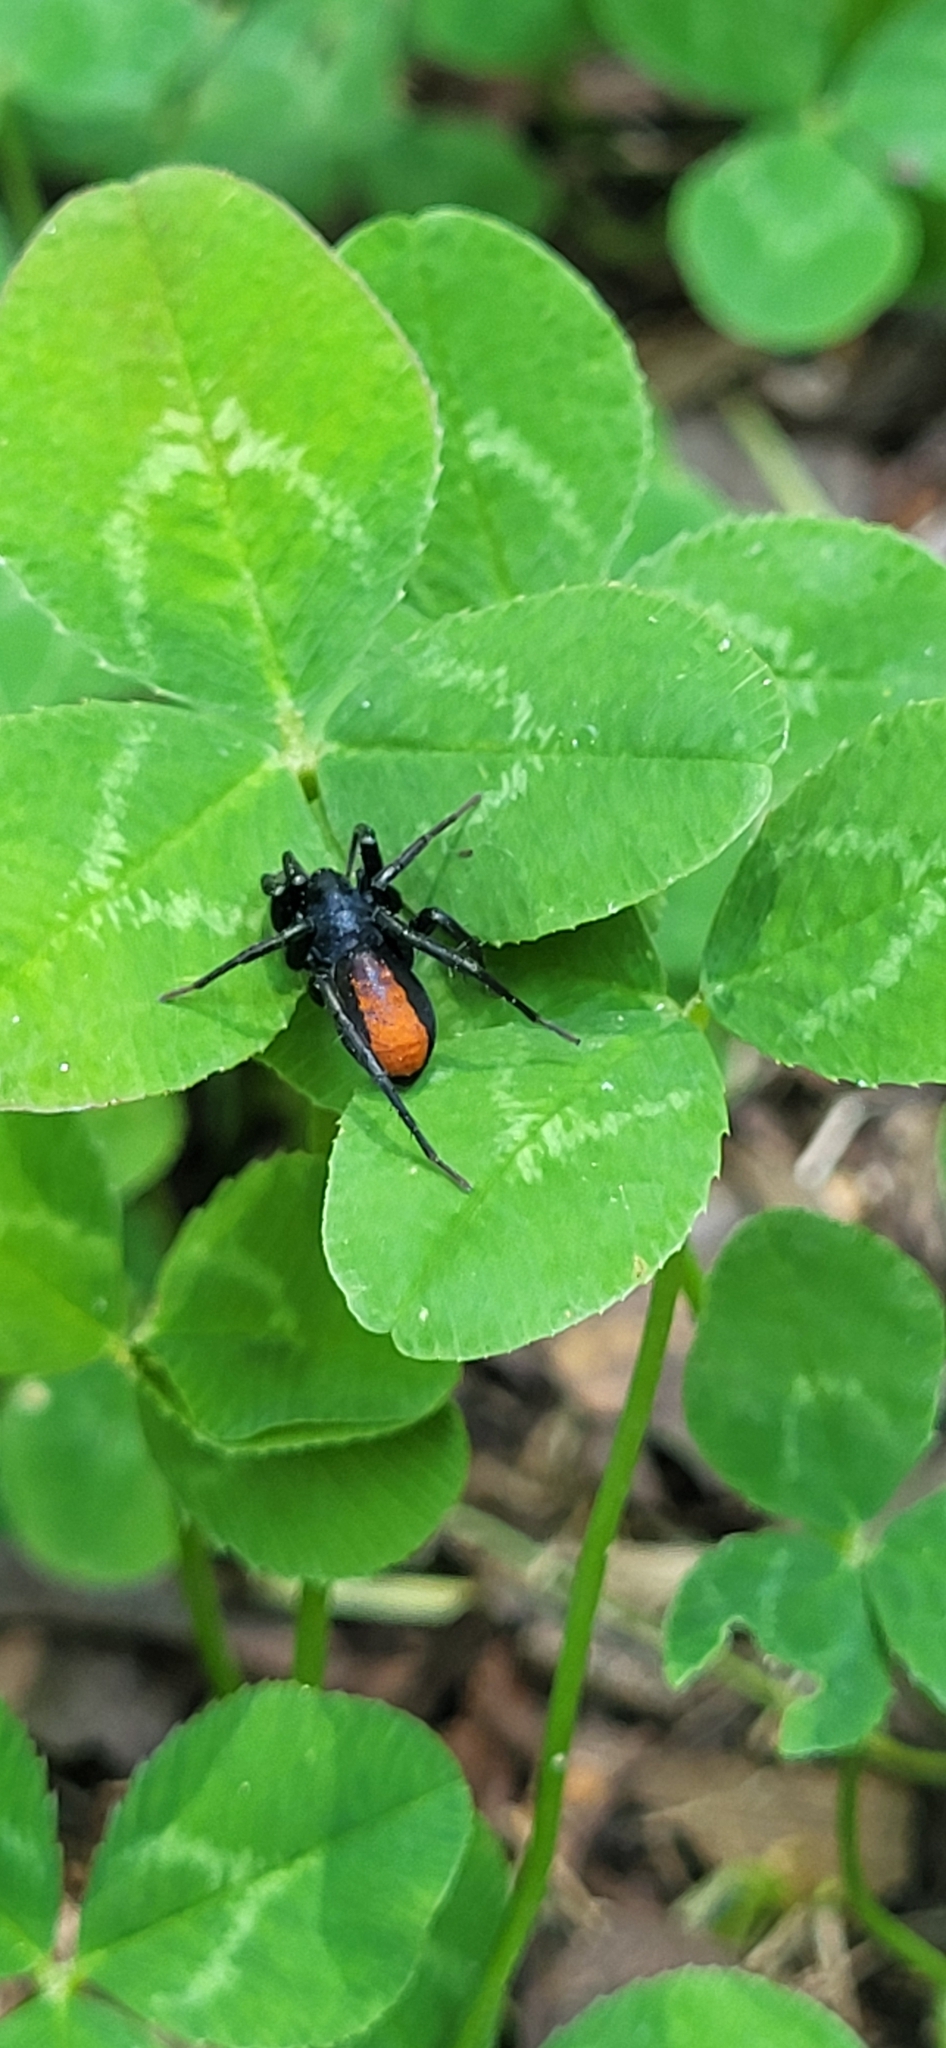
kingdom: Animalia
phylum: Arthropoda
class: Arachnida
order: Araneae
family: Corinnidae
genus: Castianeira
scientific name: Castianeira descripta
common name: Red-spotted ant-mimic sac spider
